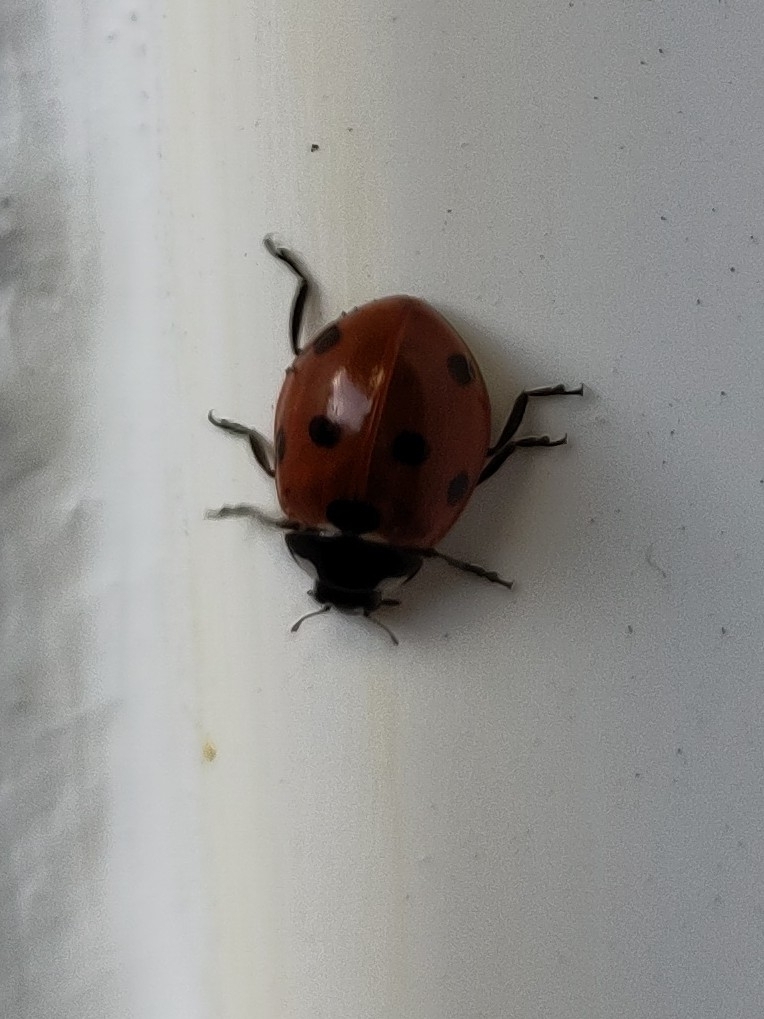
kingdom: Animalia
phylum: Arthropoda
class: Insecta
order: Coleoptera
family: Coccinellidae
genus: Coccinella
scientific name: Coccinella septempunctata
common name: Sevenspotted lady beetle
